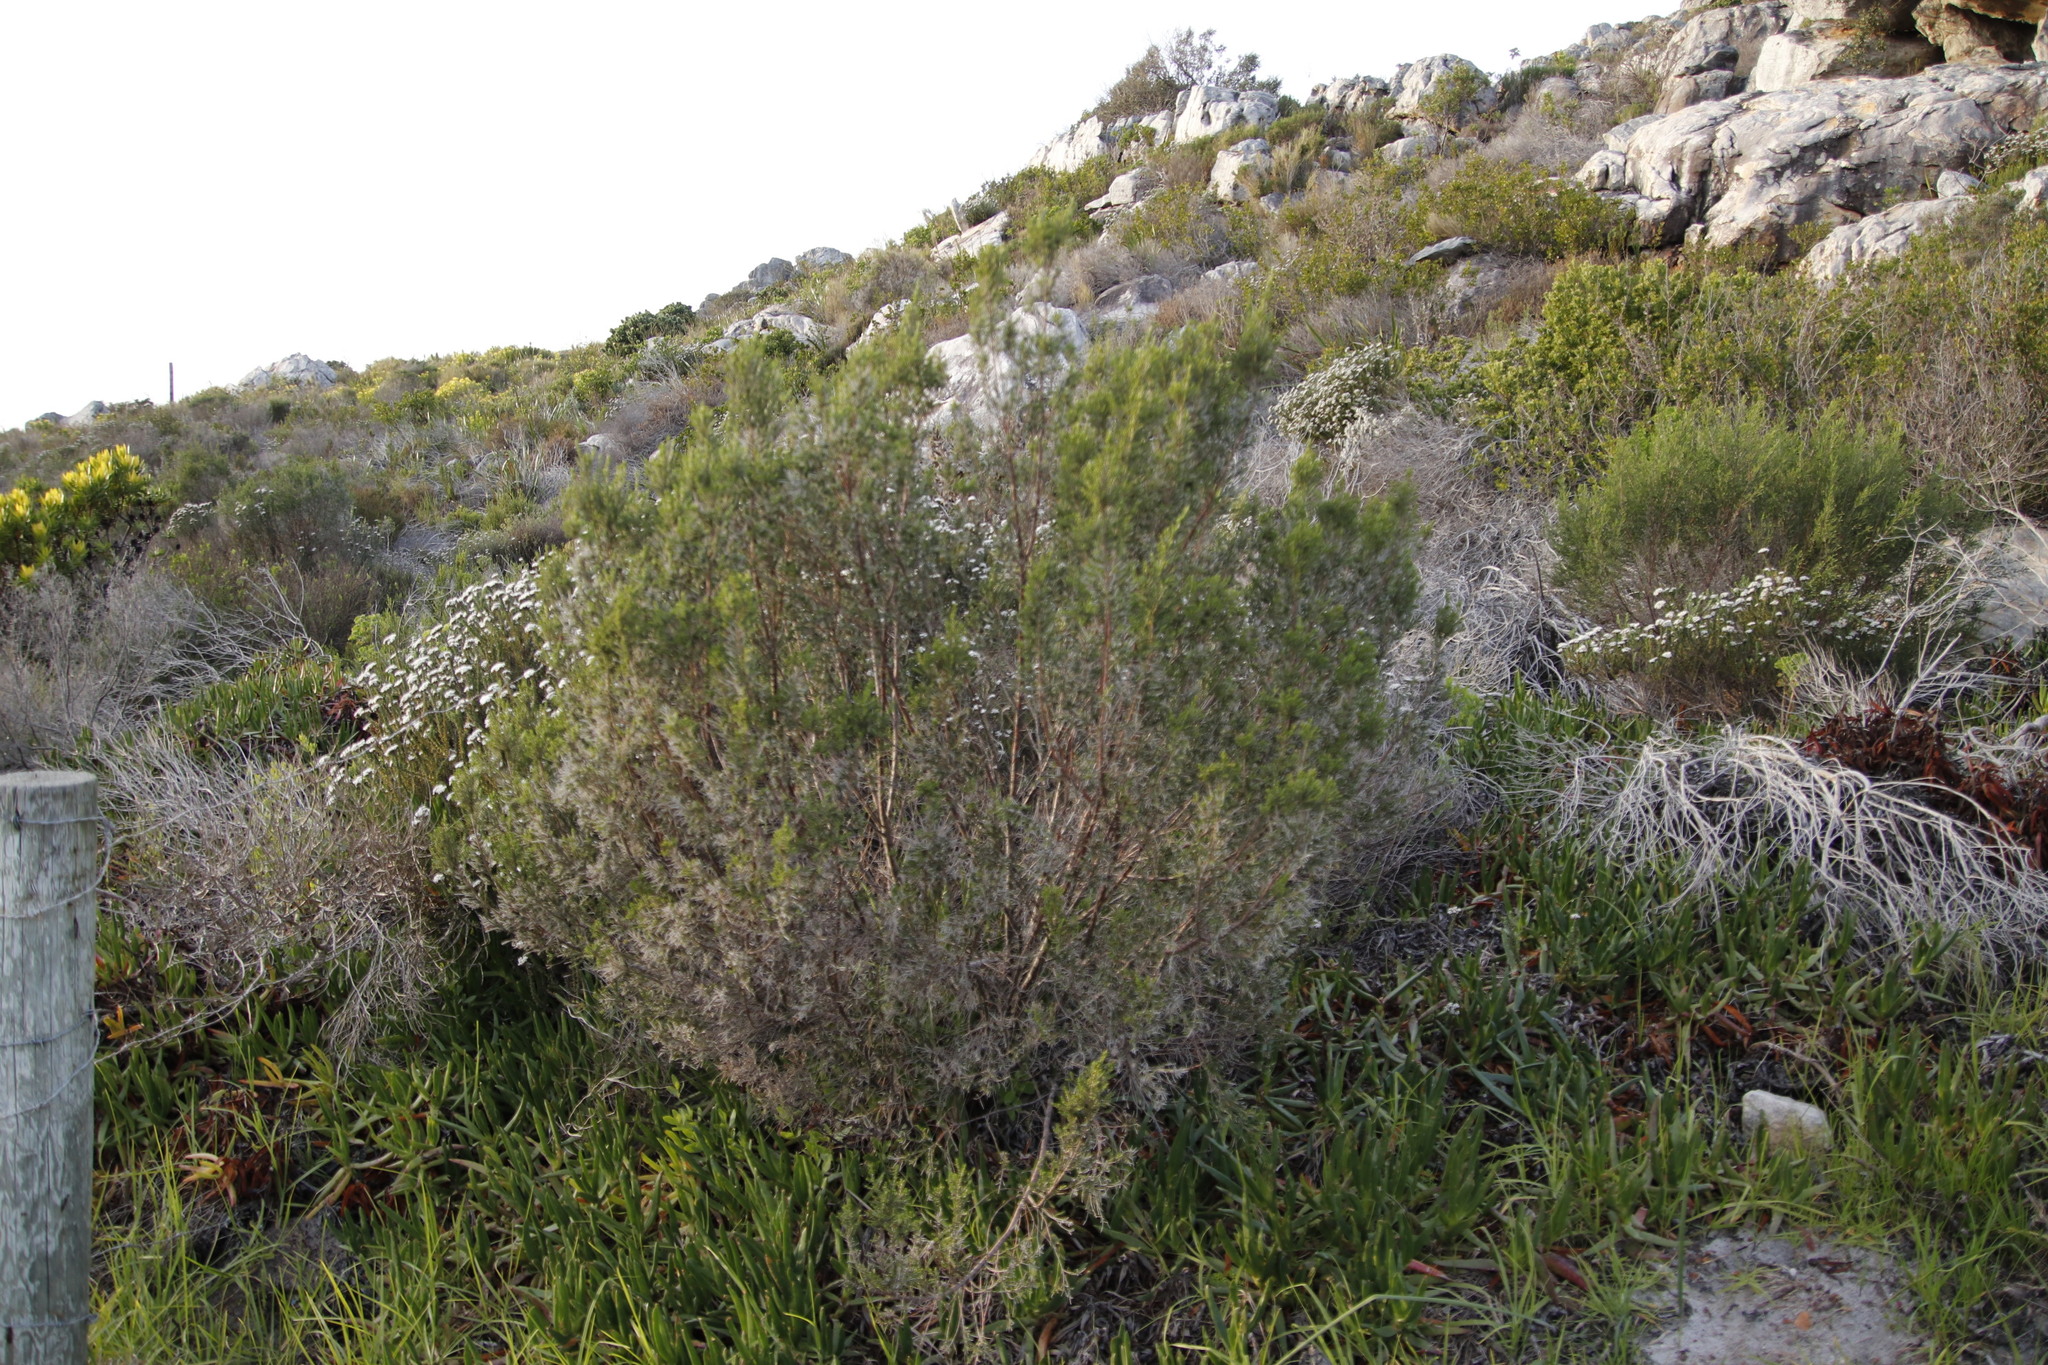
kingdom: Plantae
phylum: Tracheophyta
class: Magnoliopsida
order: Malvales
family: Thymelaeaceae
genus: Passerina
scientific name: Passerina corymbosa
